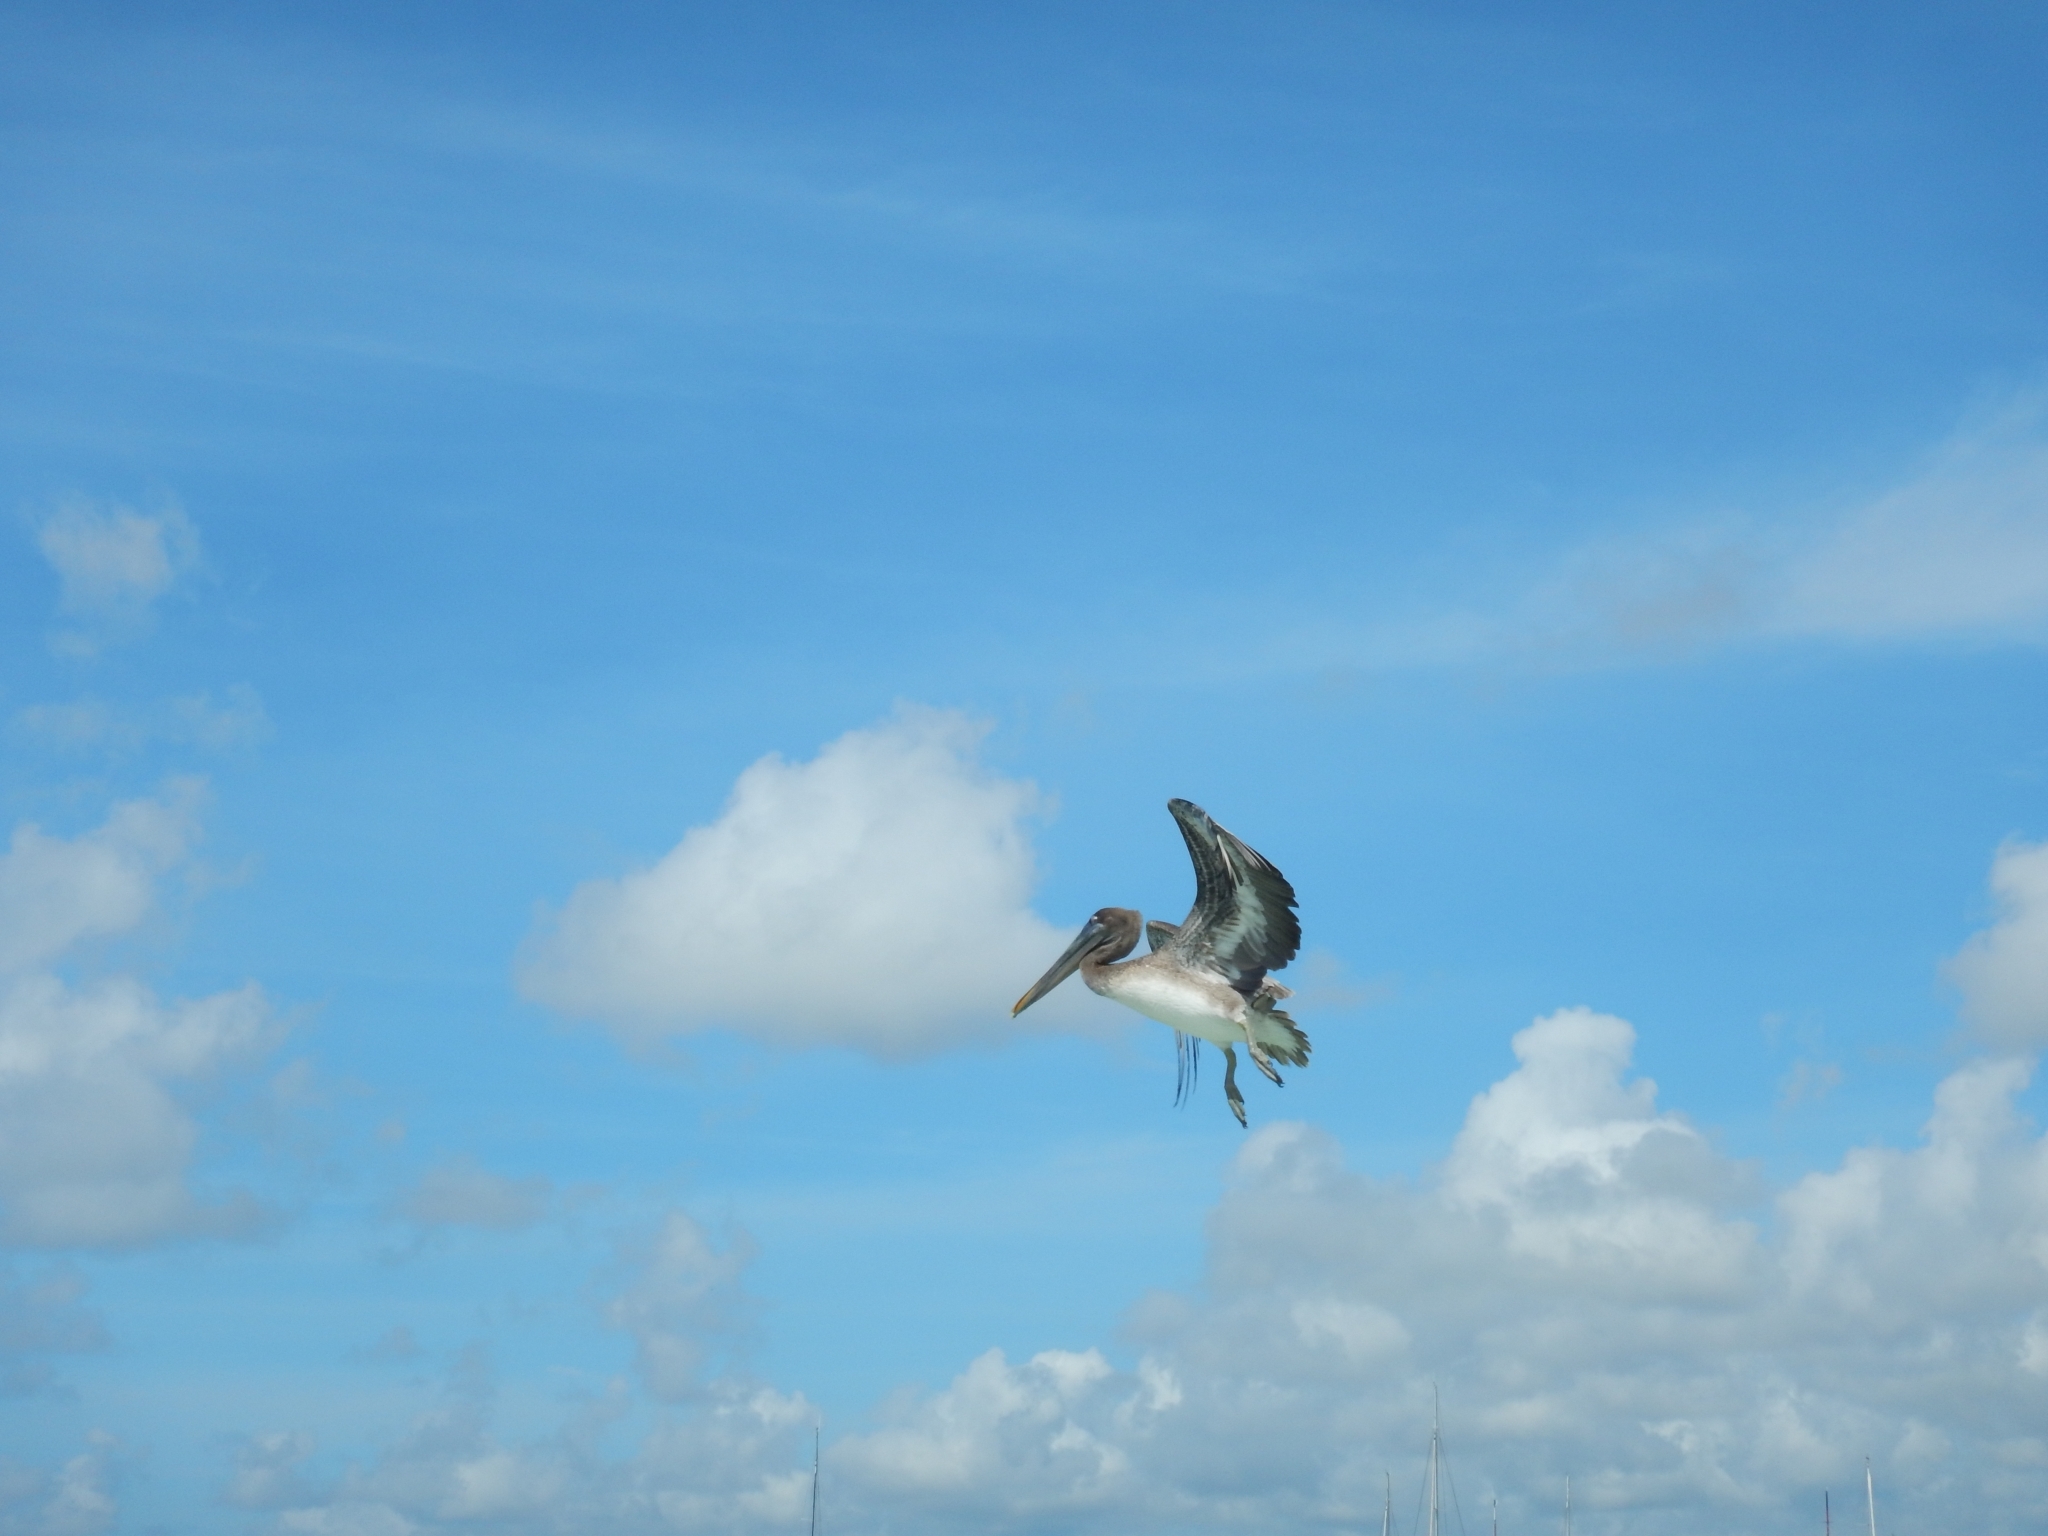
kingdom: Animalia
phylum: Chordata
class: Aves
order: Pelecaniformes
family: Pelecanidae
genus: Pelecanus
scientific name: Pelecanus occidentalis
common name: Brown pelican
